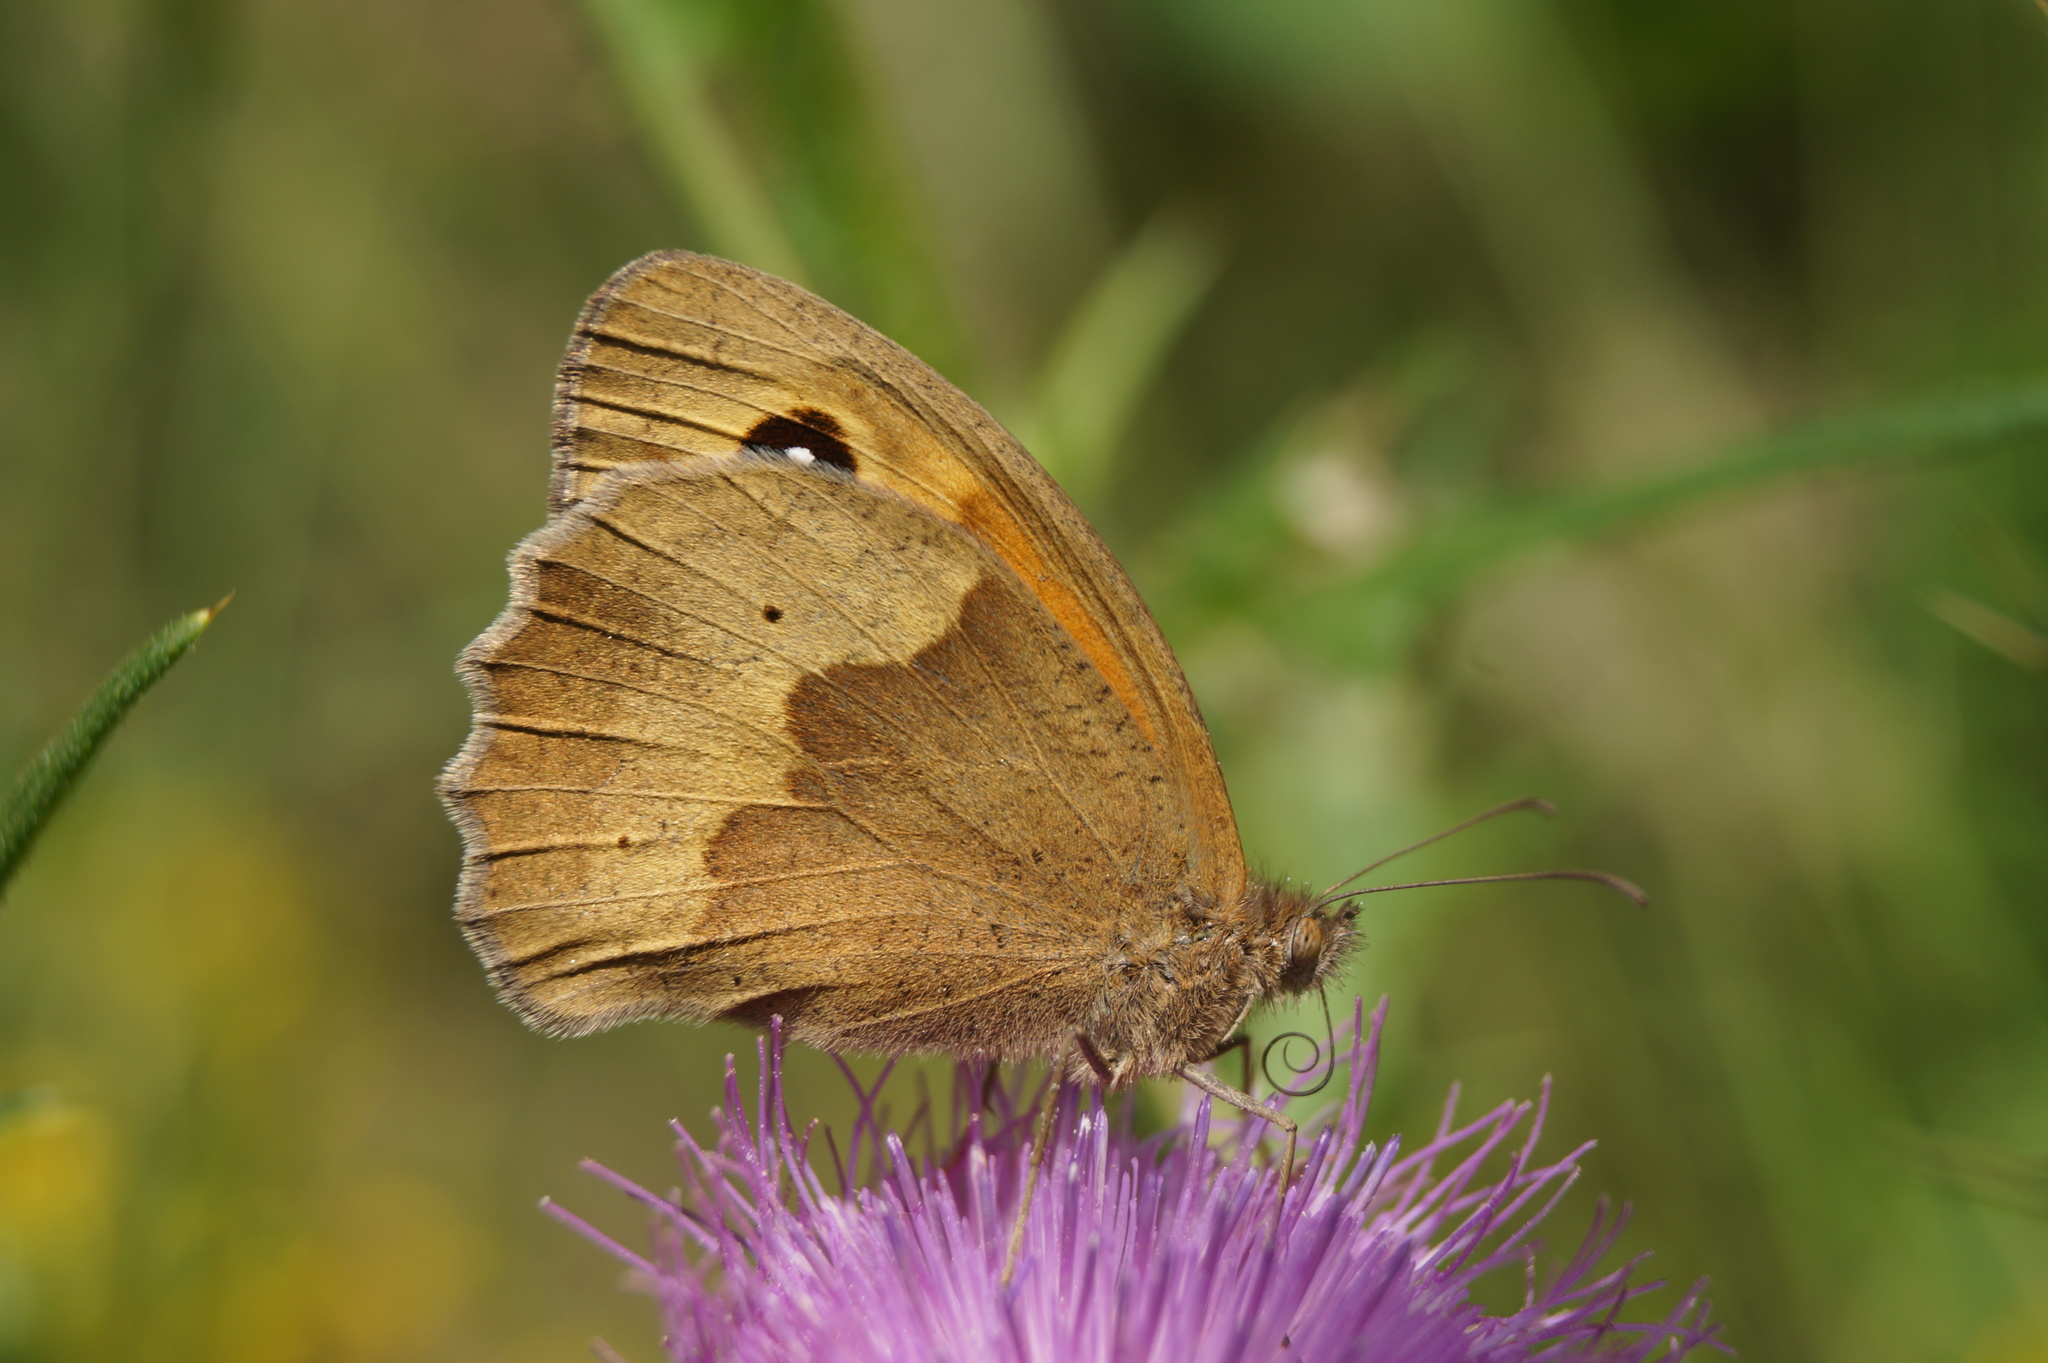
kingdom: Animalia
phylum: Arthropoda
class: Insecta
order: Lepidoptera
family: Nymphalidae
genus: Maniola
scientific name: Maniola jurtina
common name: Meadow brown
